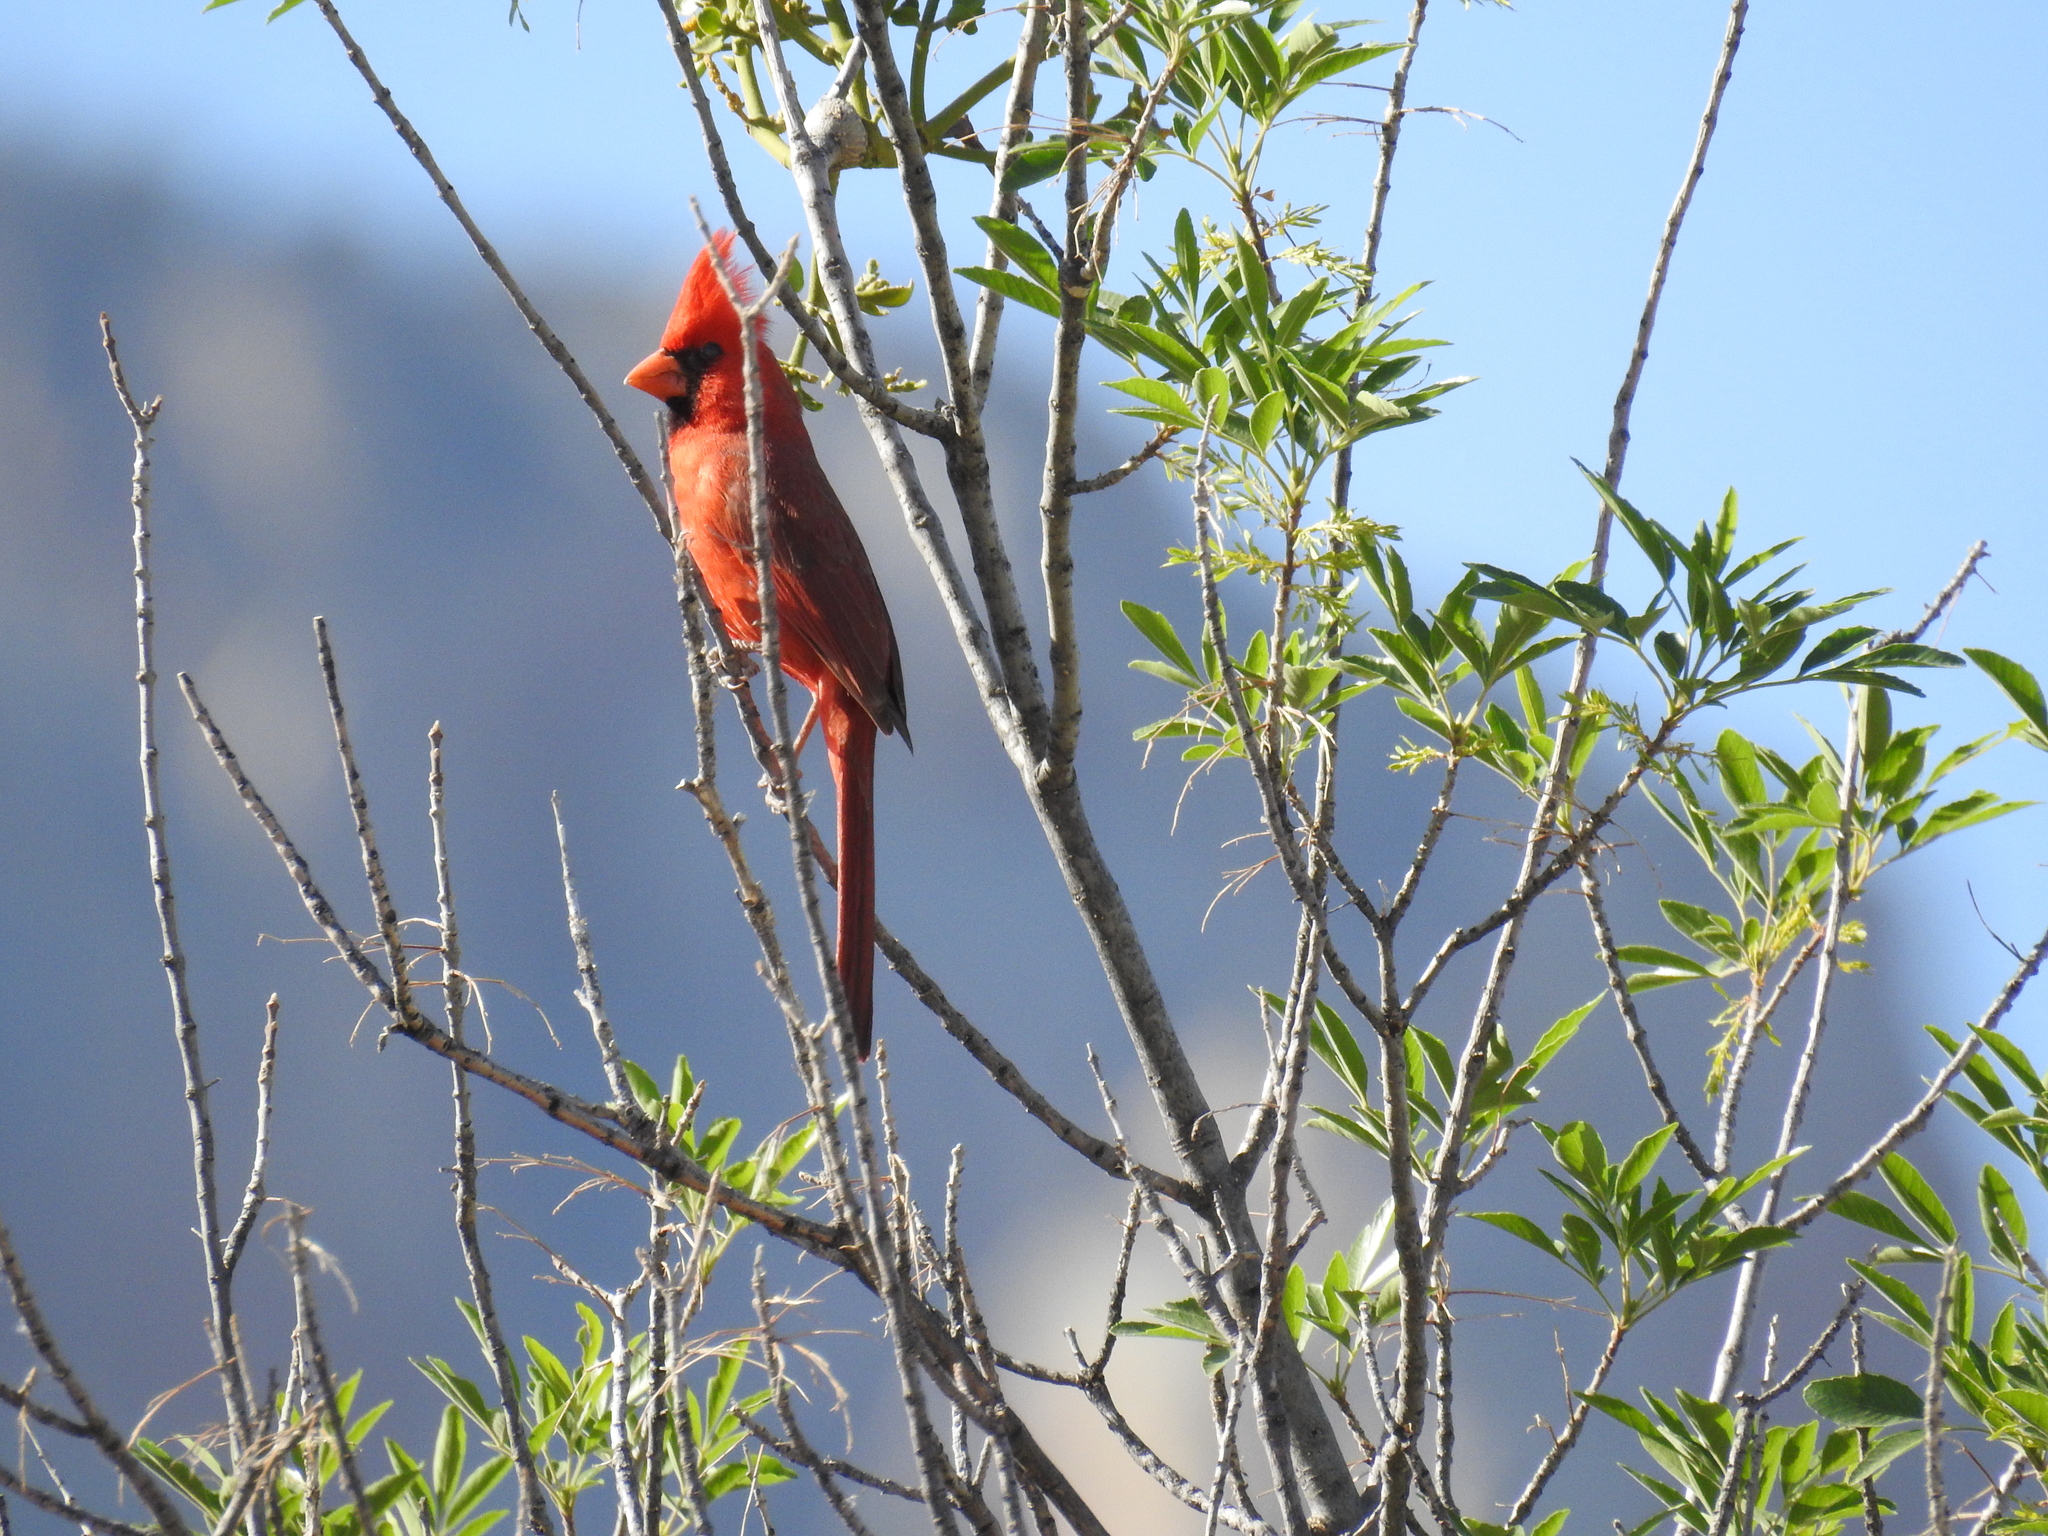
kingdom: Animalia
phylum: Chordata
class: Aves
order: Passeriformes
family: Cardinalidae
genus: Cardinalis
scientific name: Cardinalis cardinalis
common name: Northern cardinal
